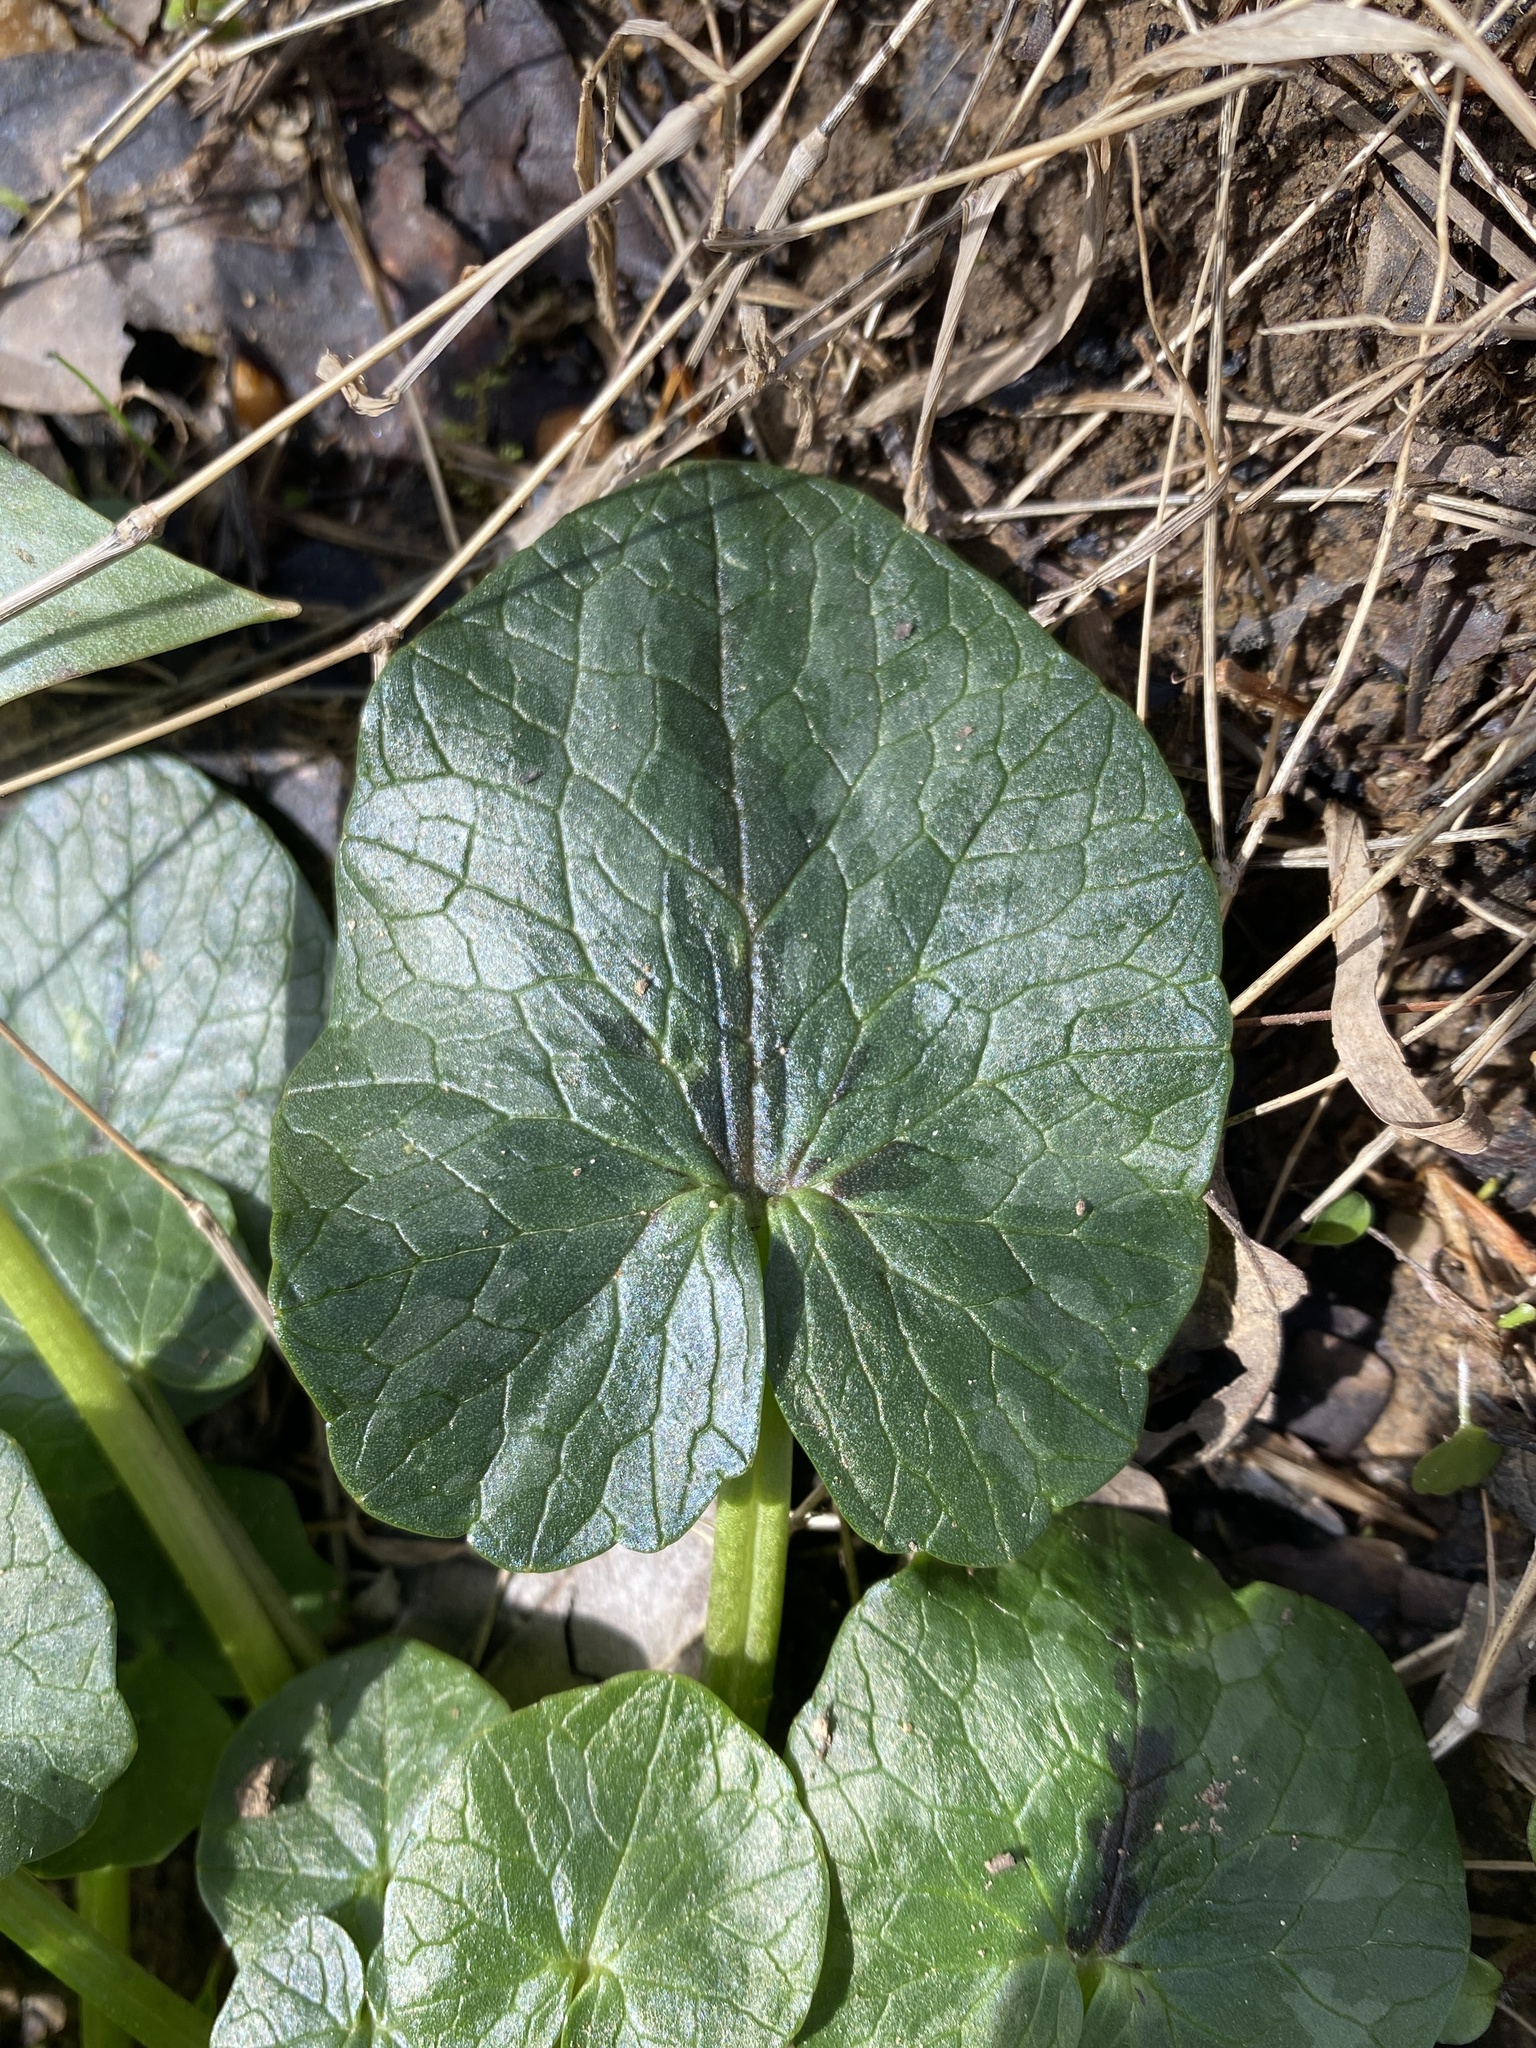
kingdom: Plantae
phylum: Tracheophyta
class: Magnoliopsida
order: Ranunculales
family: Ranunculaceae
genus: Ficaria
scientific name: Ficaria verna
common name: Lesser celandine
